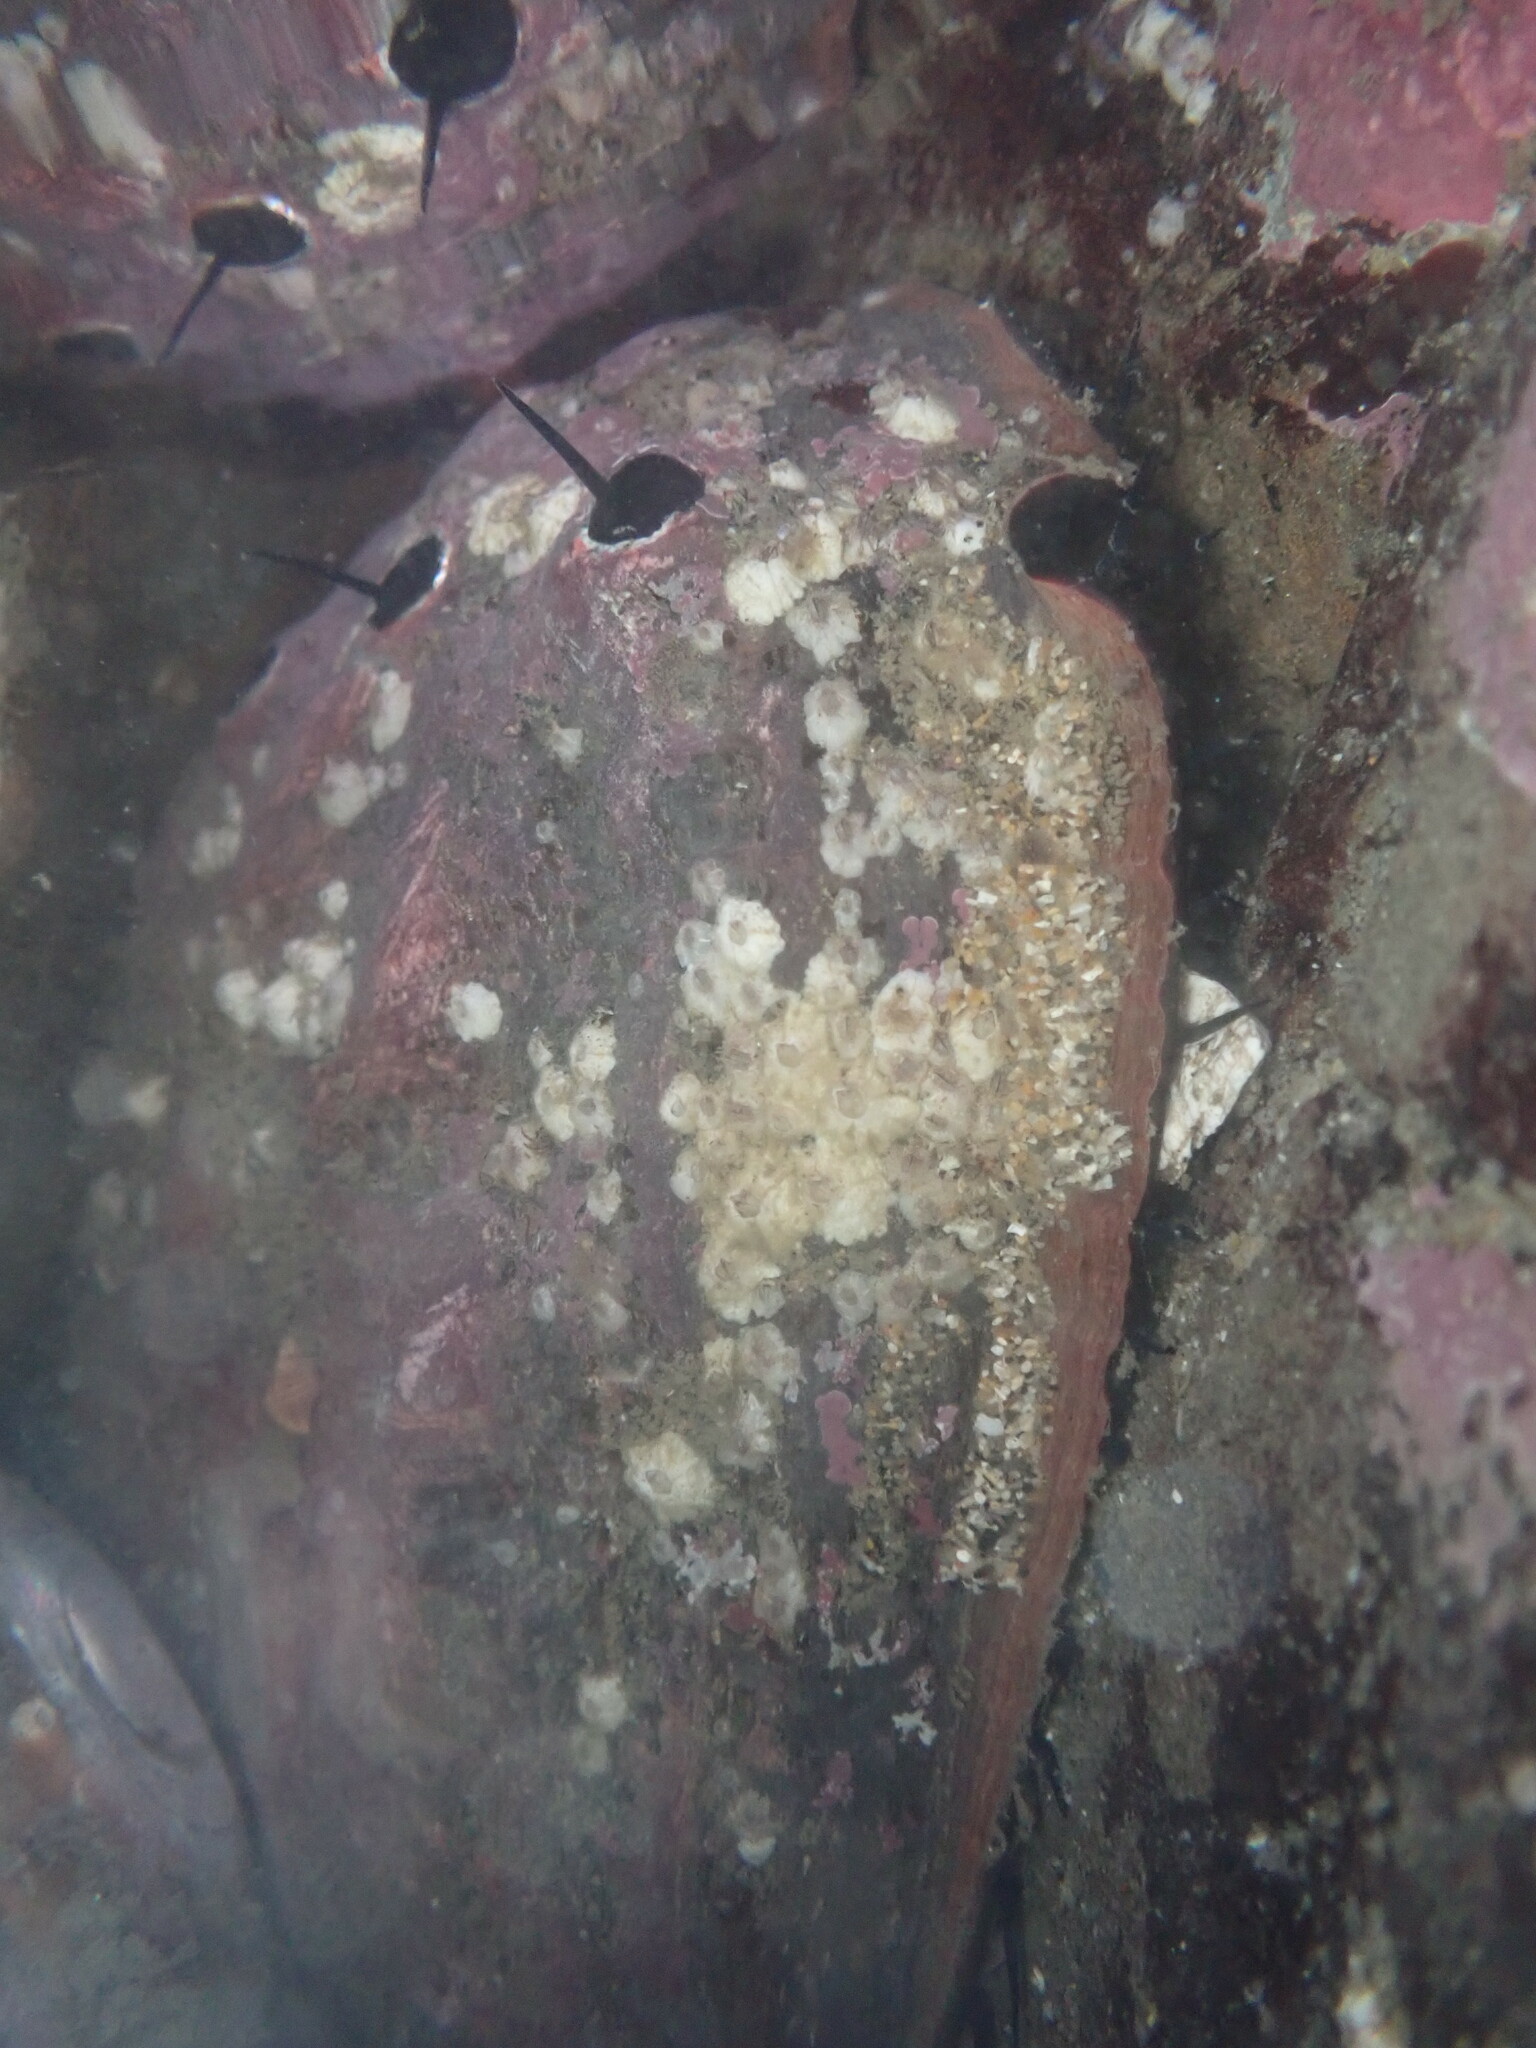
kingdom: Animalia
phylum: Mollusca
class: Gastropoda
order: Lepetellida
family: Haliotidae
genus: Haliotis
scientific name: Haliotis rufescens
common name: Red abalone
